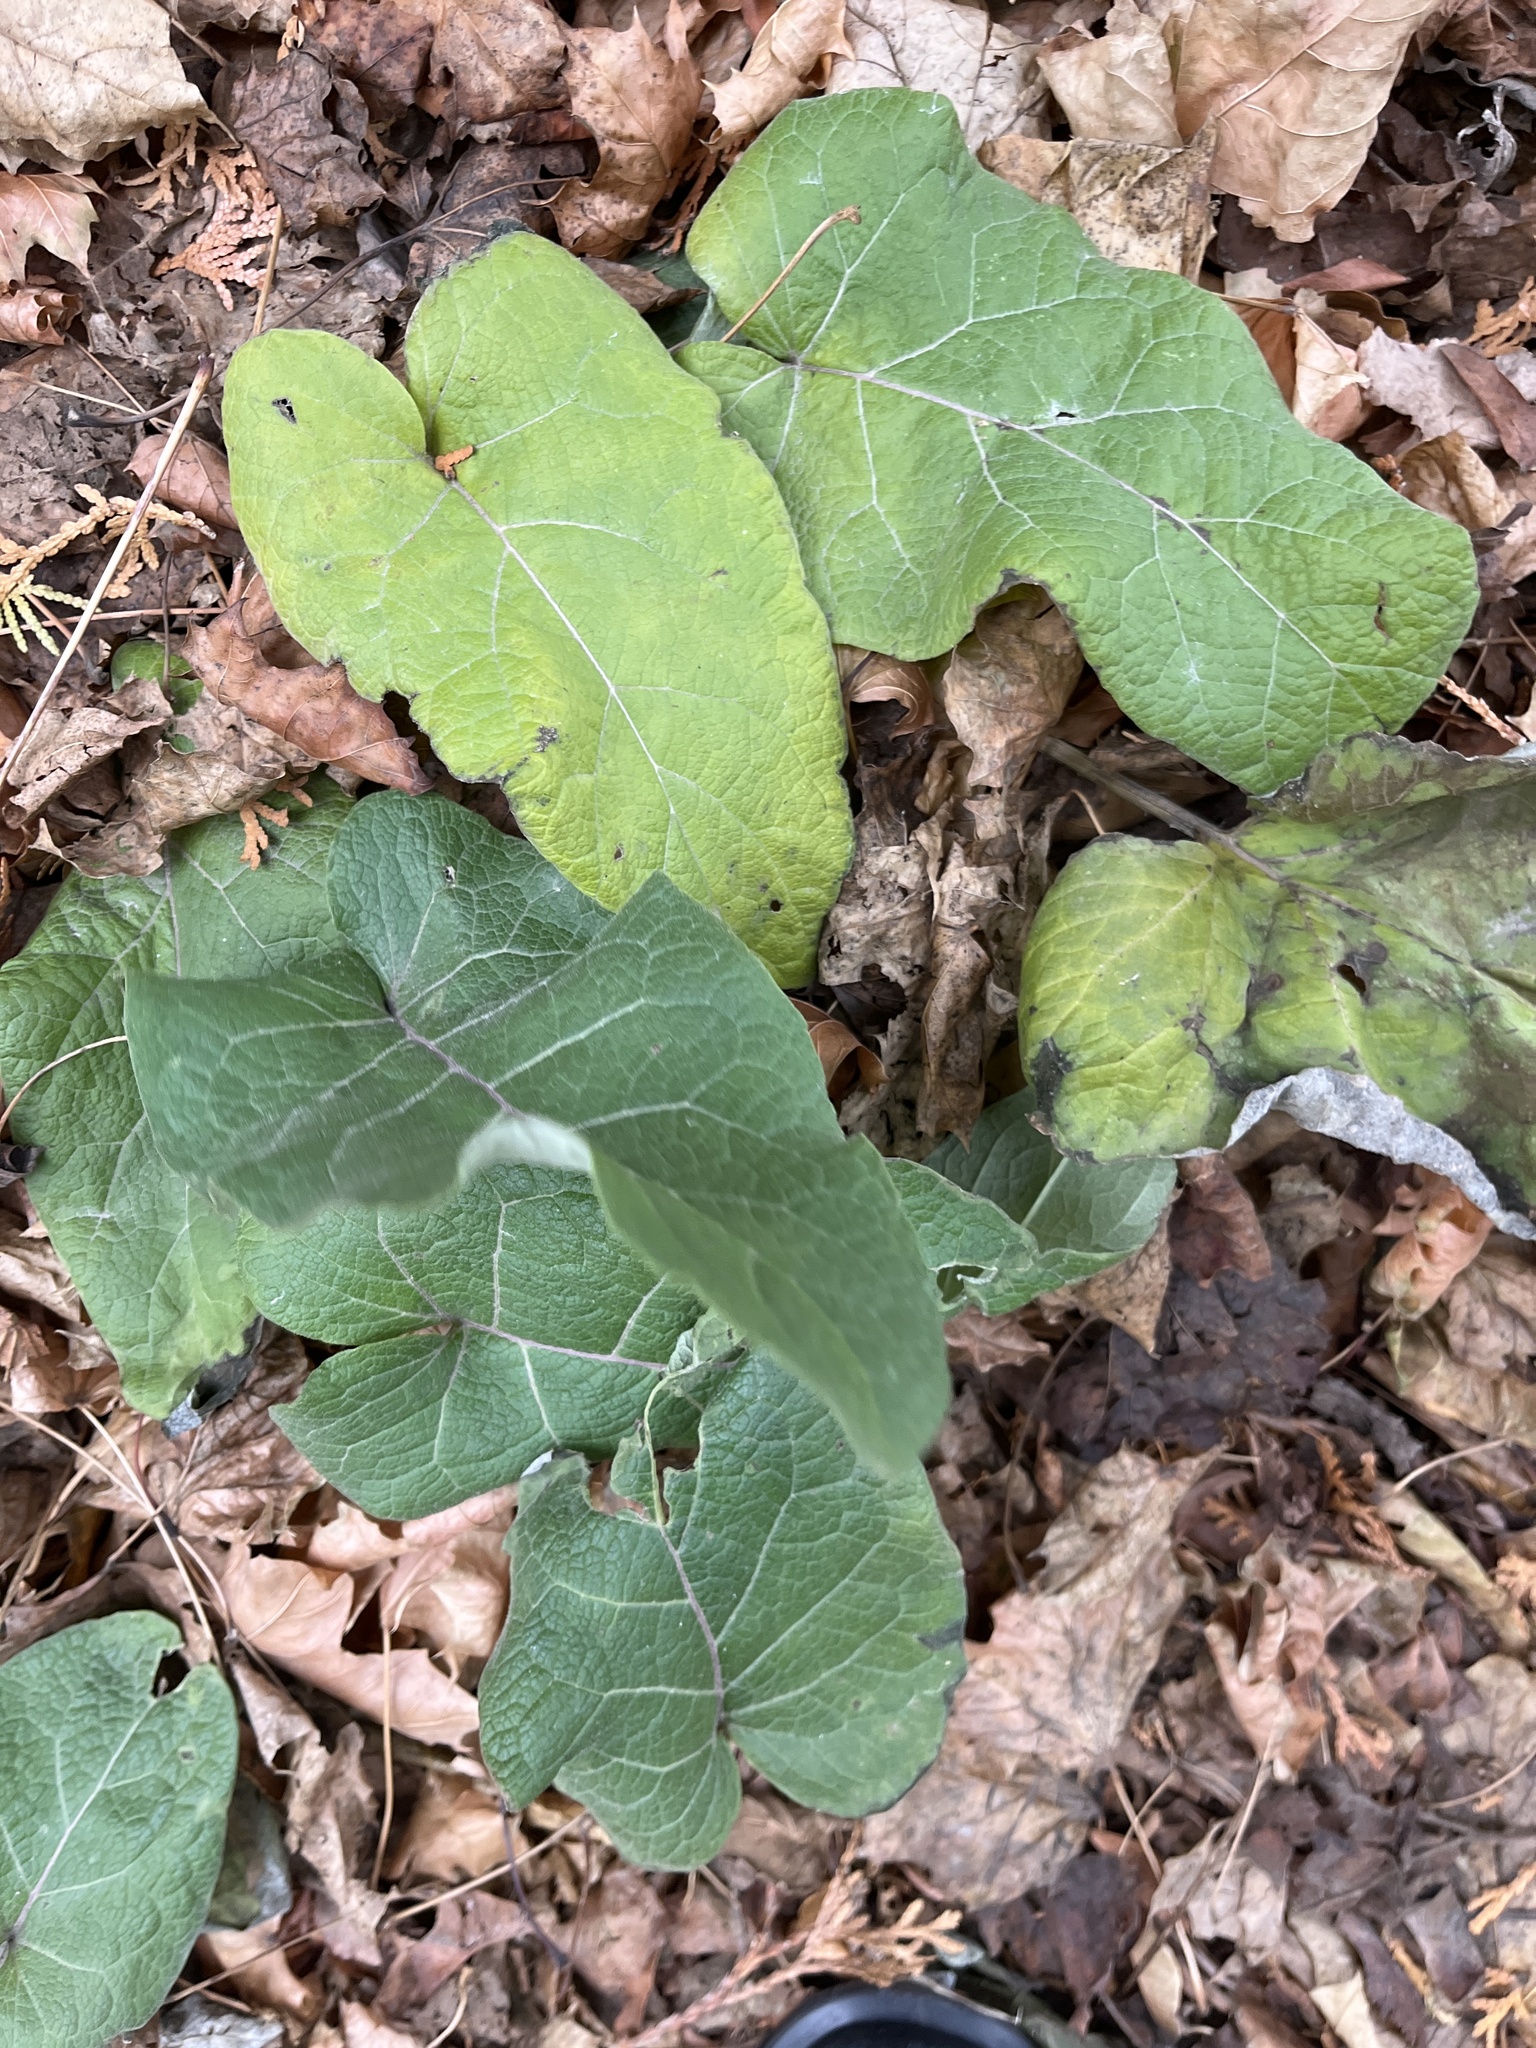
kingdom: Plantae
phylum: Tracheophyta
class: Magnoliopsida
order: Asterales
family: Asteraceae
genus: Arctium
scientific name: Arctium
